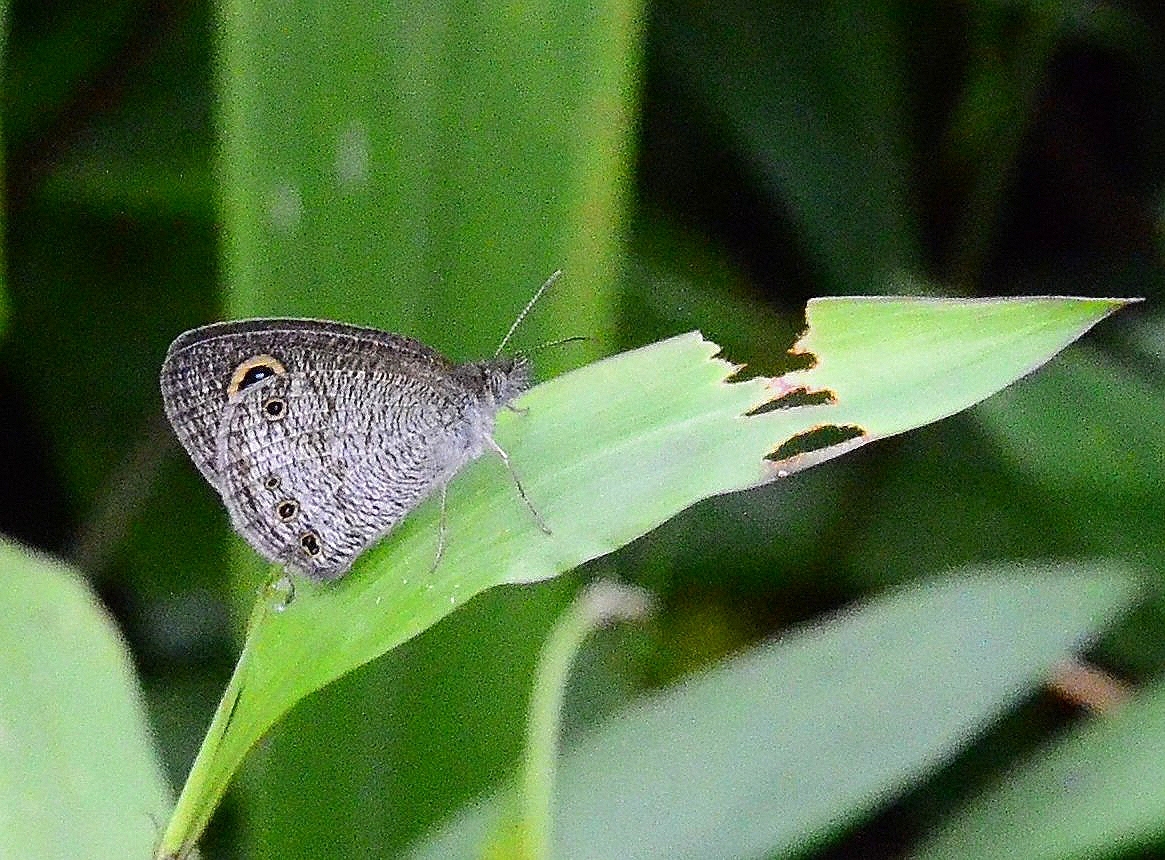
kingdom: Animalia
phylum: Arthropoda
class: Insecta
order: Lepidoptera
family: Nymphalidae
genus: Ypthima
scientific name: Ypthima huebneri
